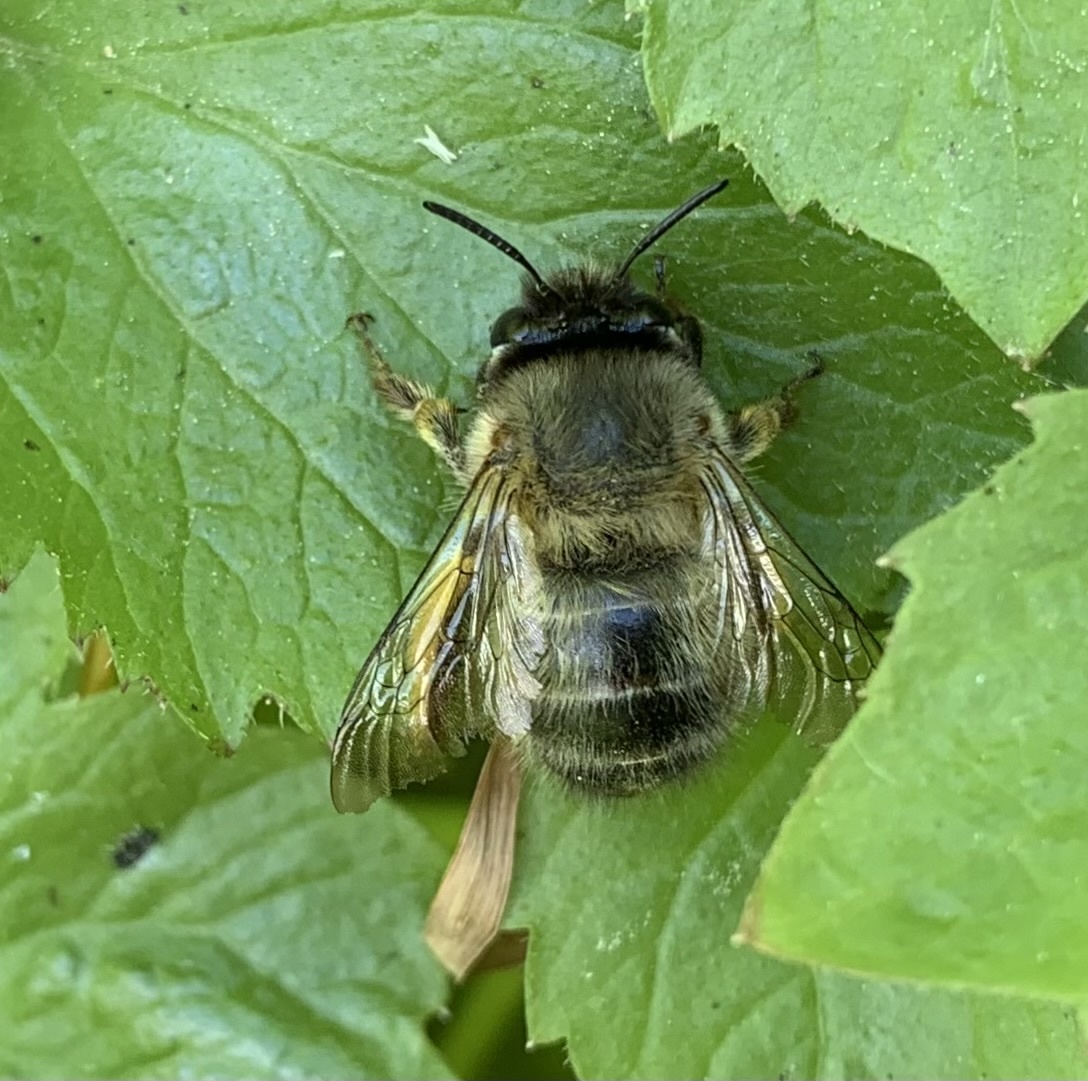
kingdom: Animalia
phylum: Arthropoda
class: Insecta
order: Hymenoptera
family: Apidae
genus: Anthophora
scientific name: Anthophora plumipes
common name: Hairy-footed flower bee
